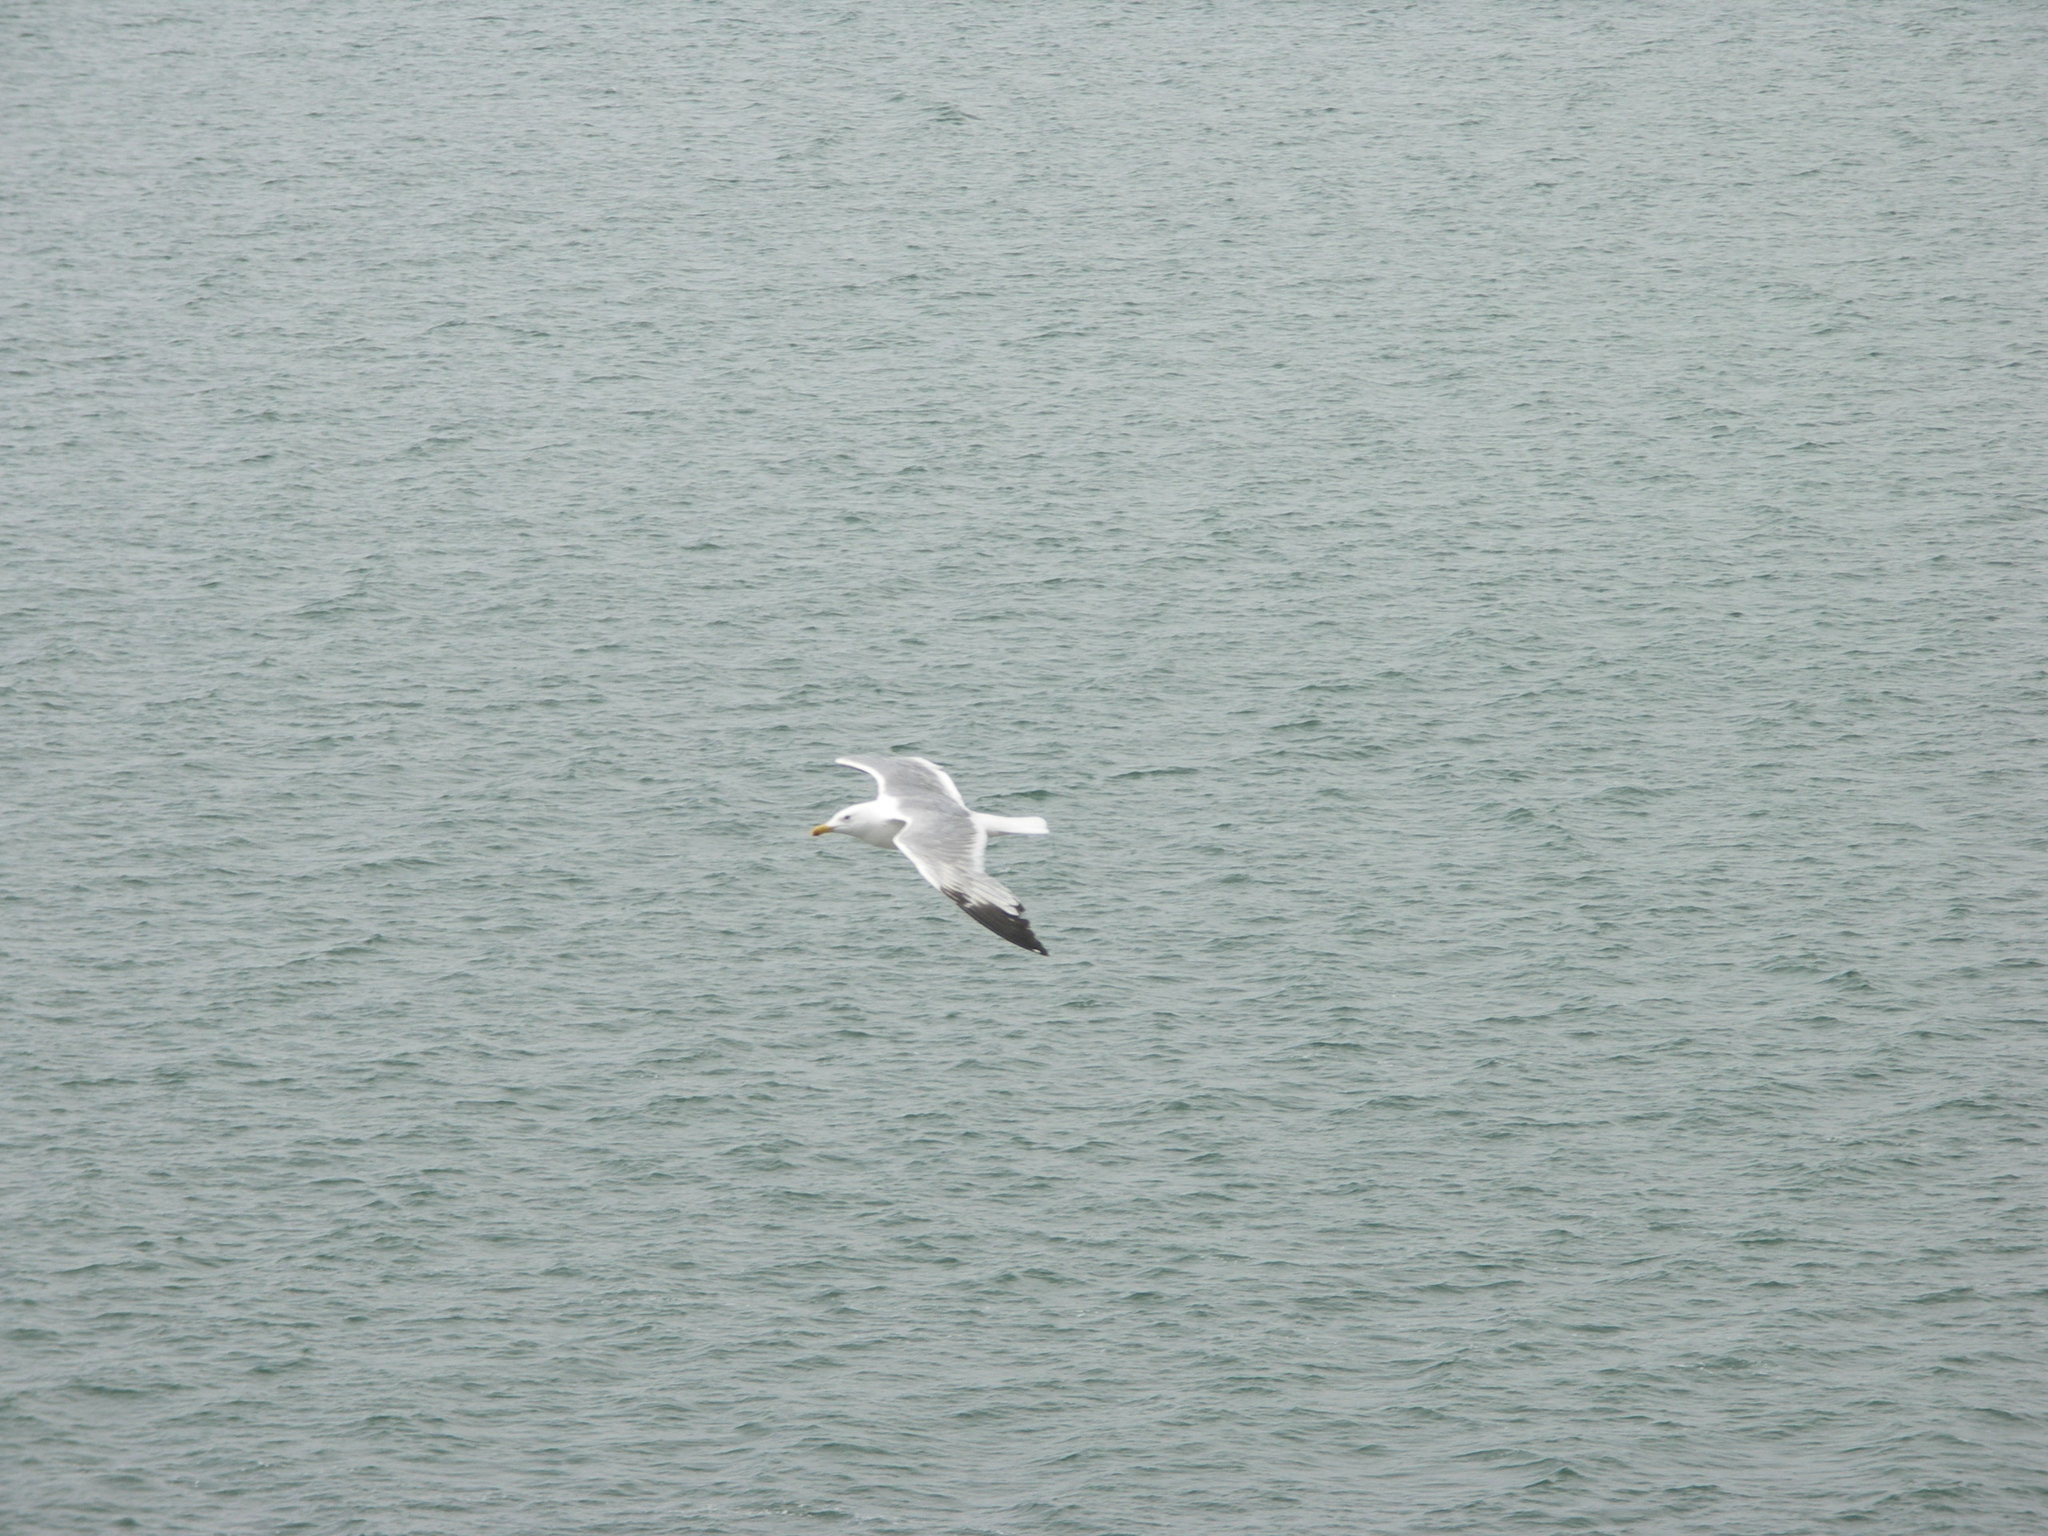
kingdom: Animalia
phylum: Chordata
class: Aves
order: Charadriiformes
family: Laridae
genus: Larus
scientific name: Larus vegae
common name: Vega gull
